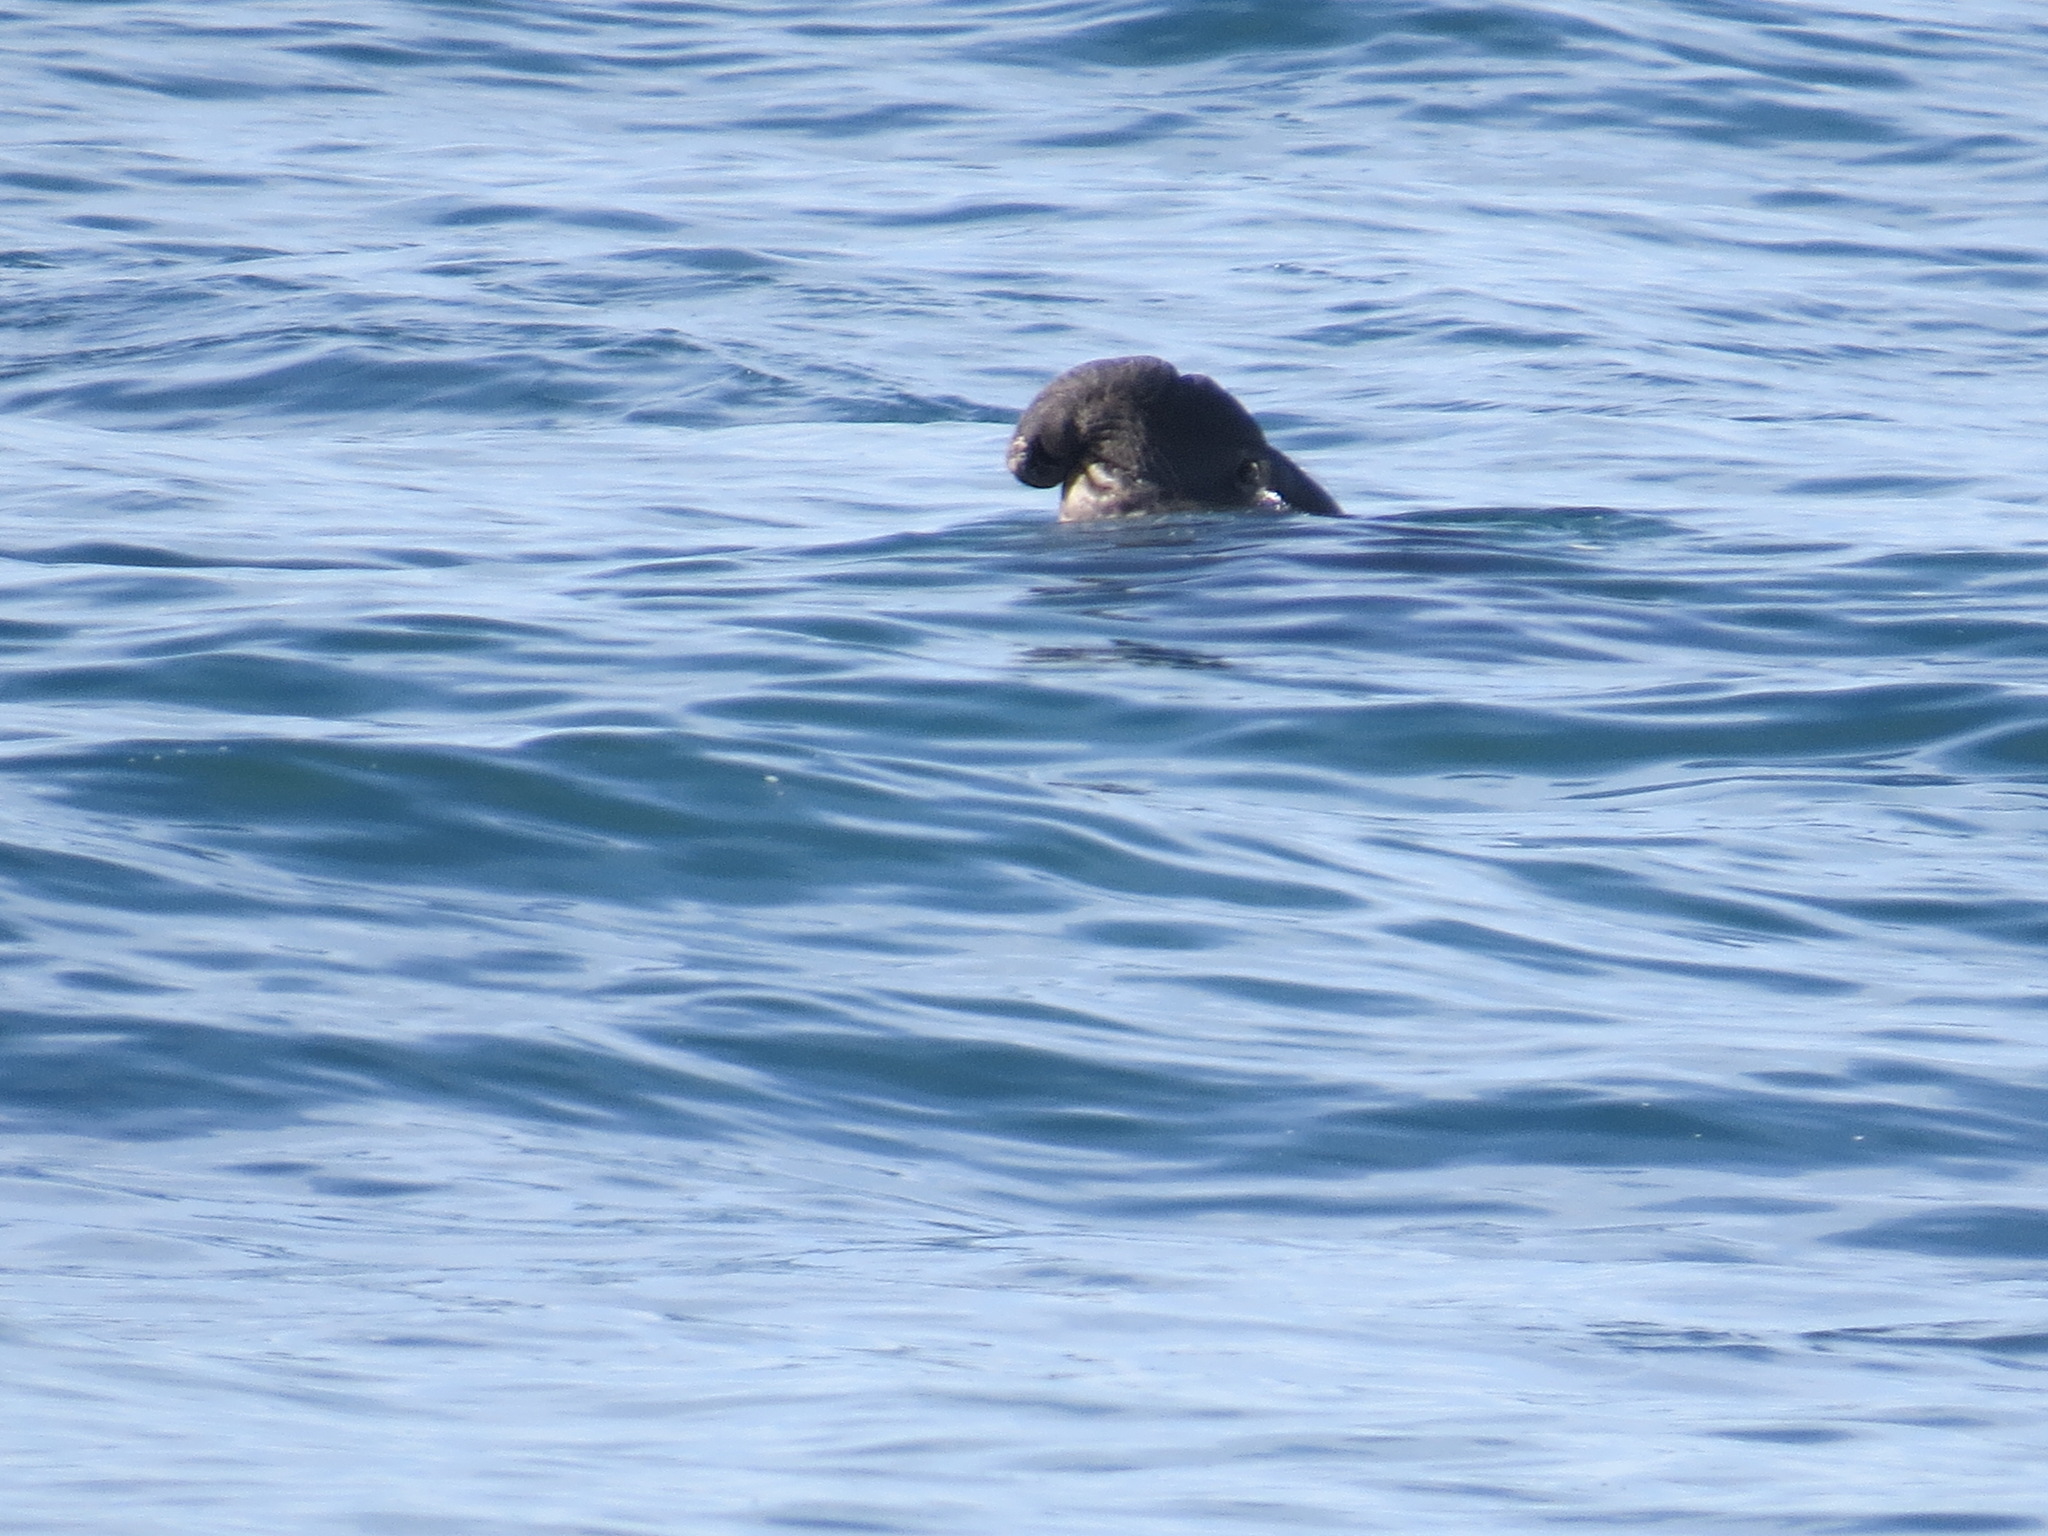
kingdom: Animalia
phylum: Chordata
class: Mammalia
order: Carnivora
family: Phocidae
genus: Mirounga
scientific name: Mirounga angustirostris
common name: Northern elephant seal
